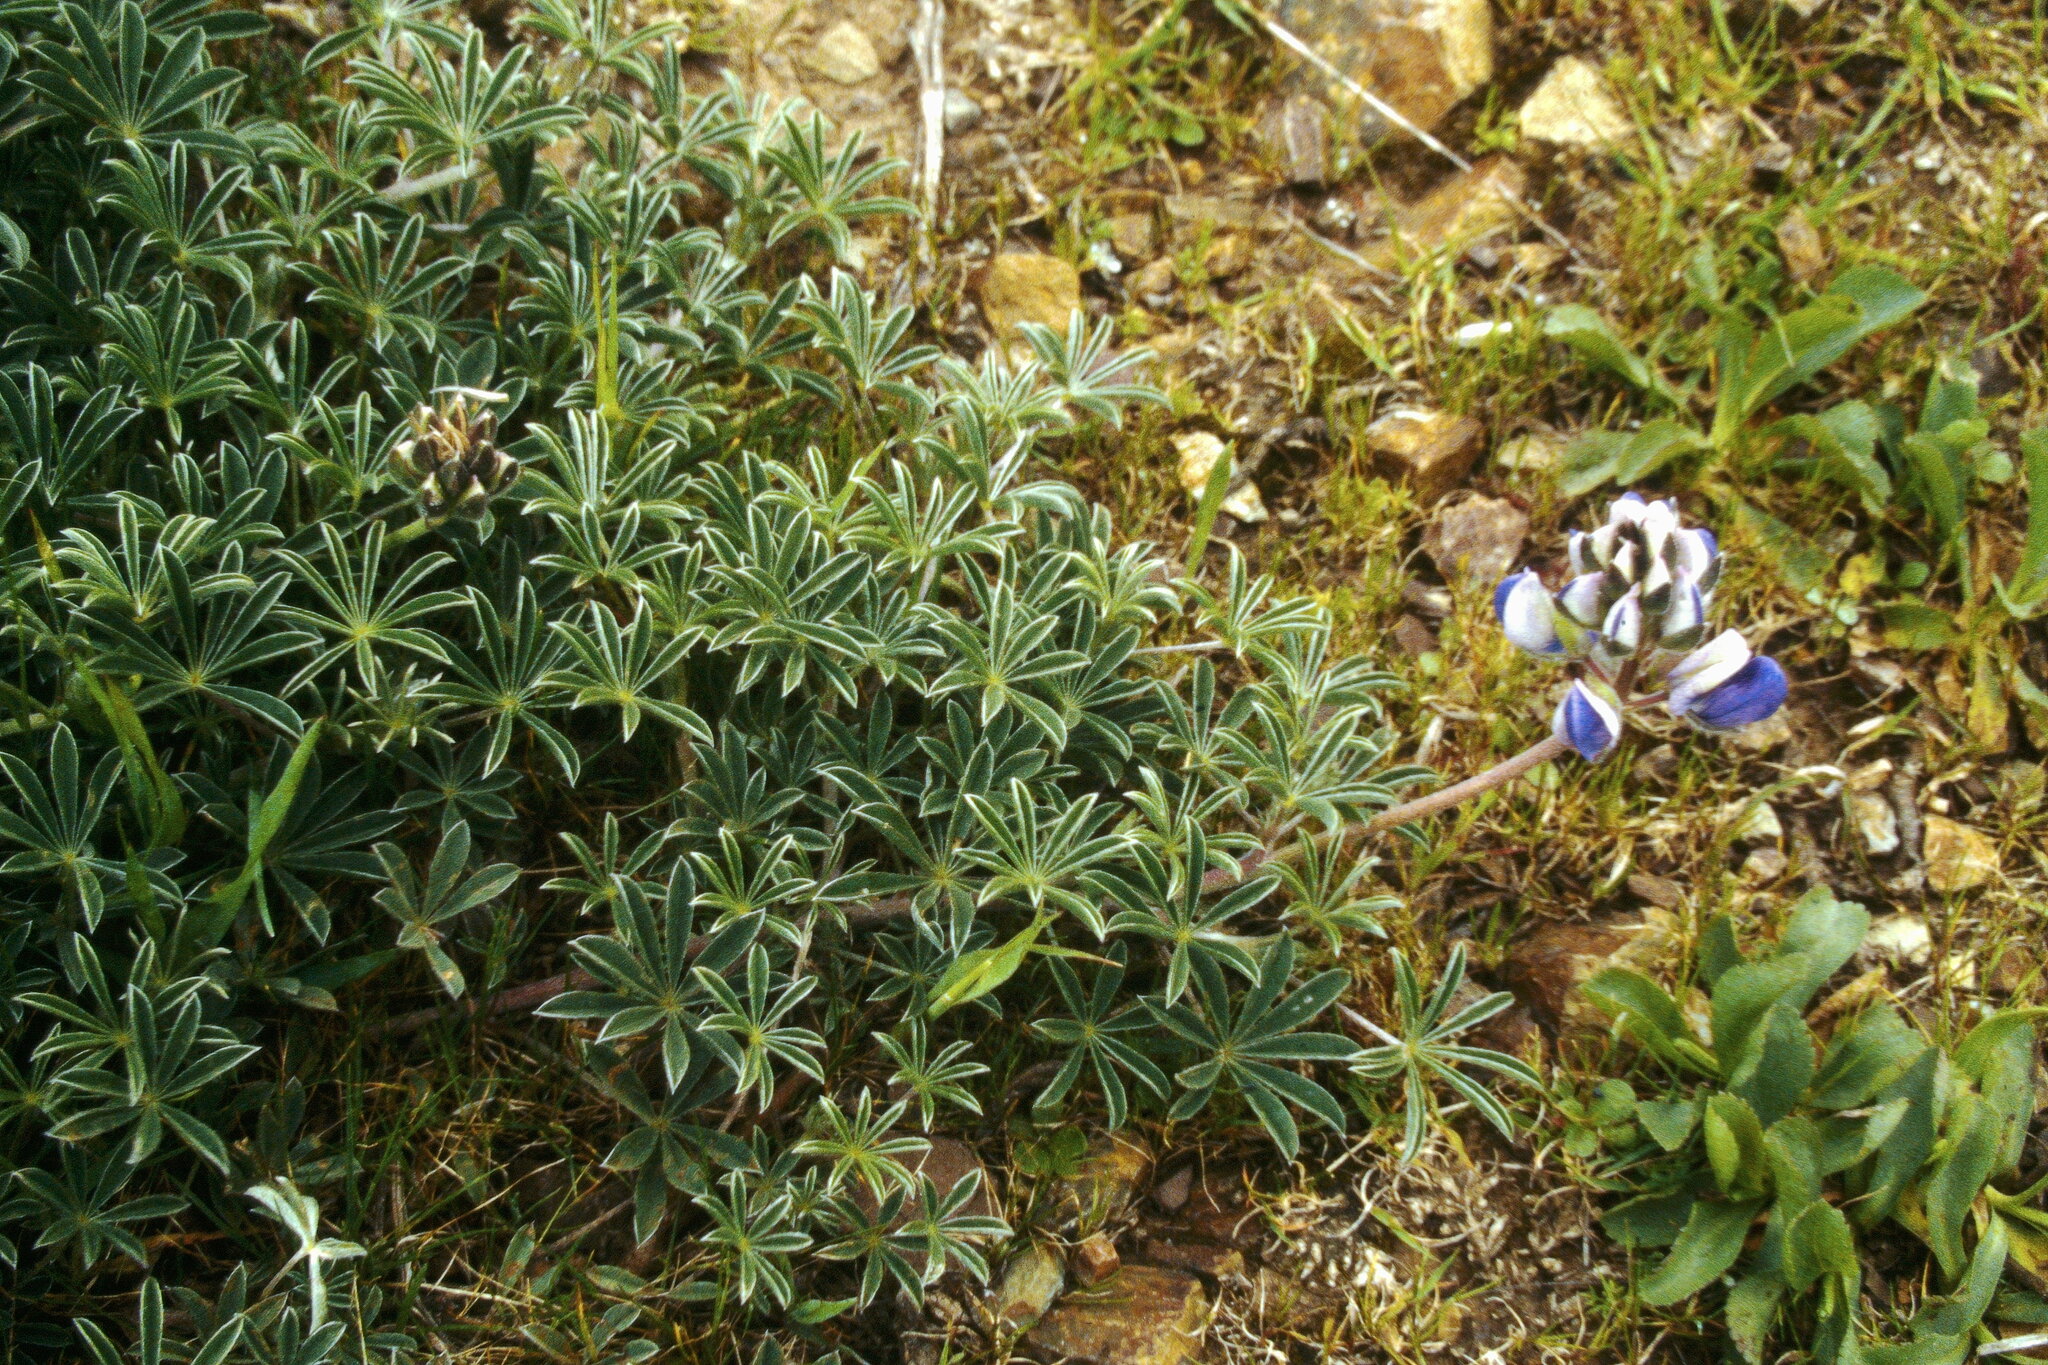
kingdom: Plantae
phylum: Tracheophyta
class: Magnoliopsida
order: Fabales
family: Fabaceae
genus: Lupinus
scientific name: Lupinus variicolor
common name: Lindley's varied lupine
